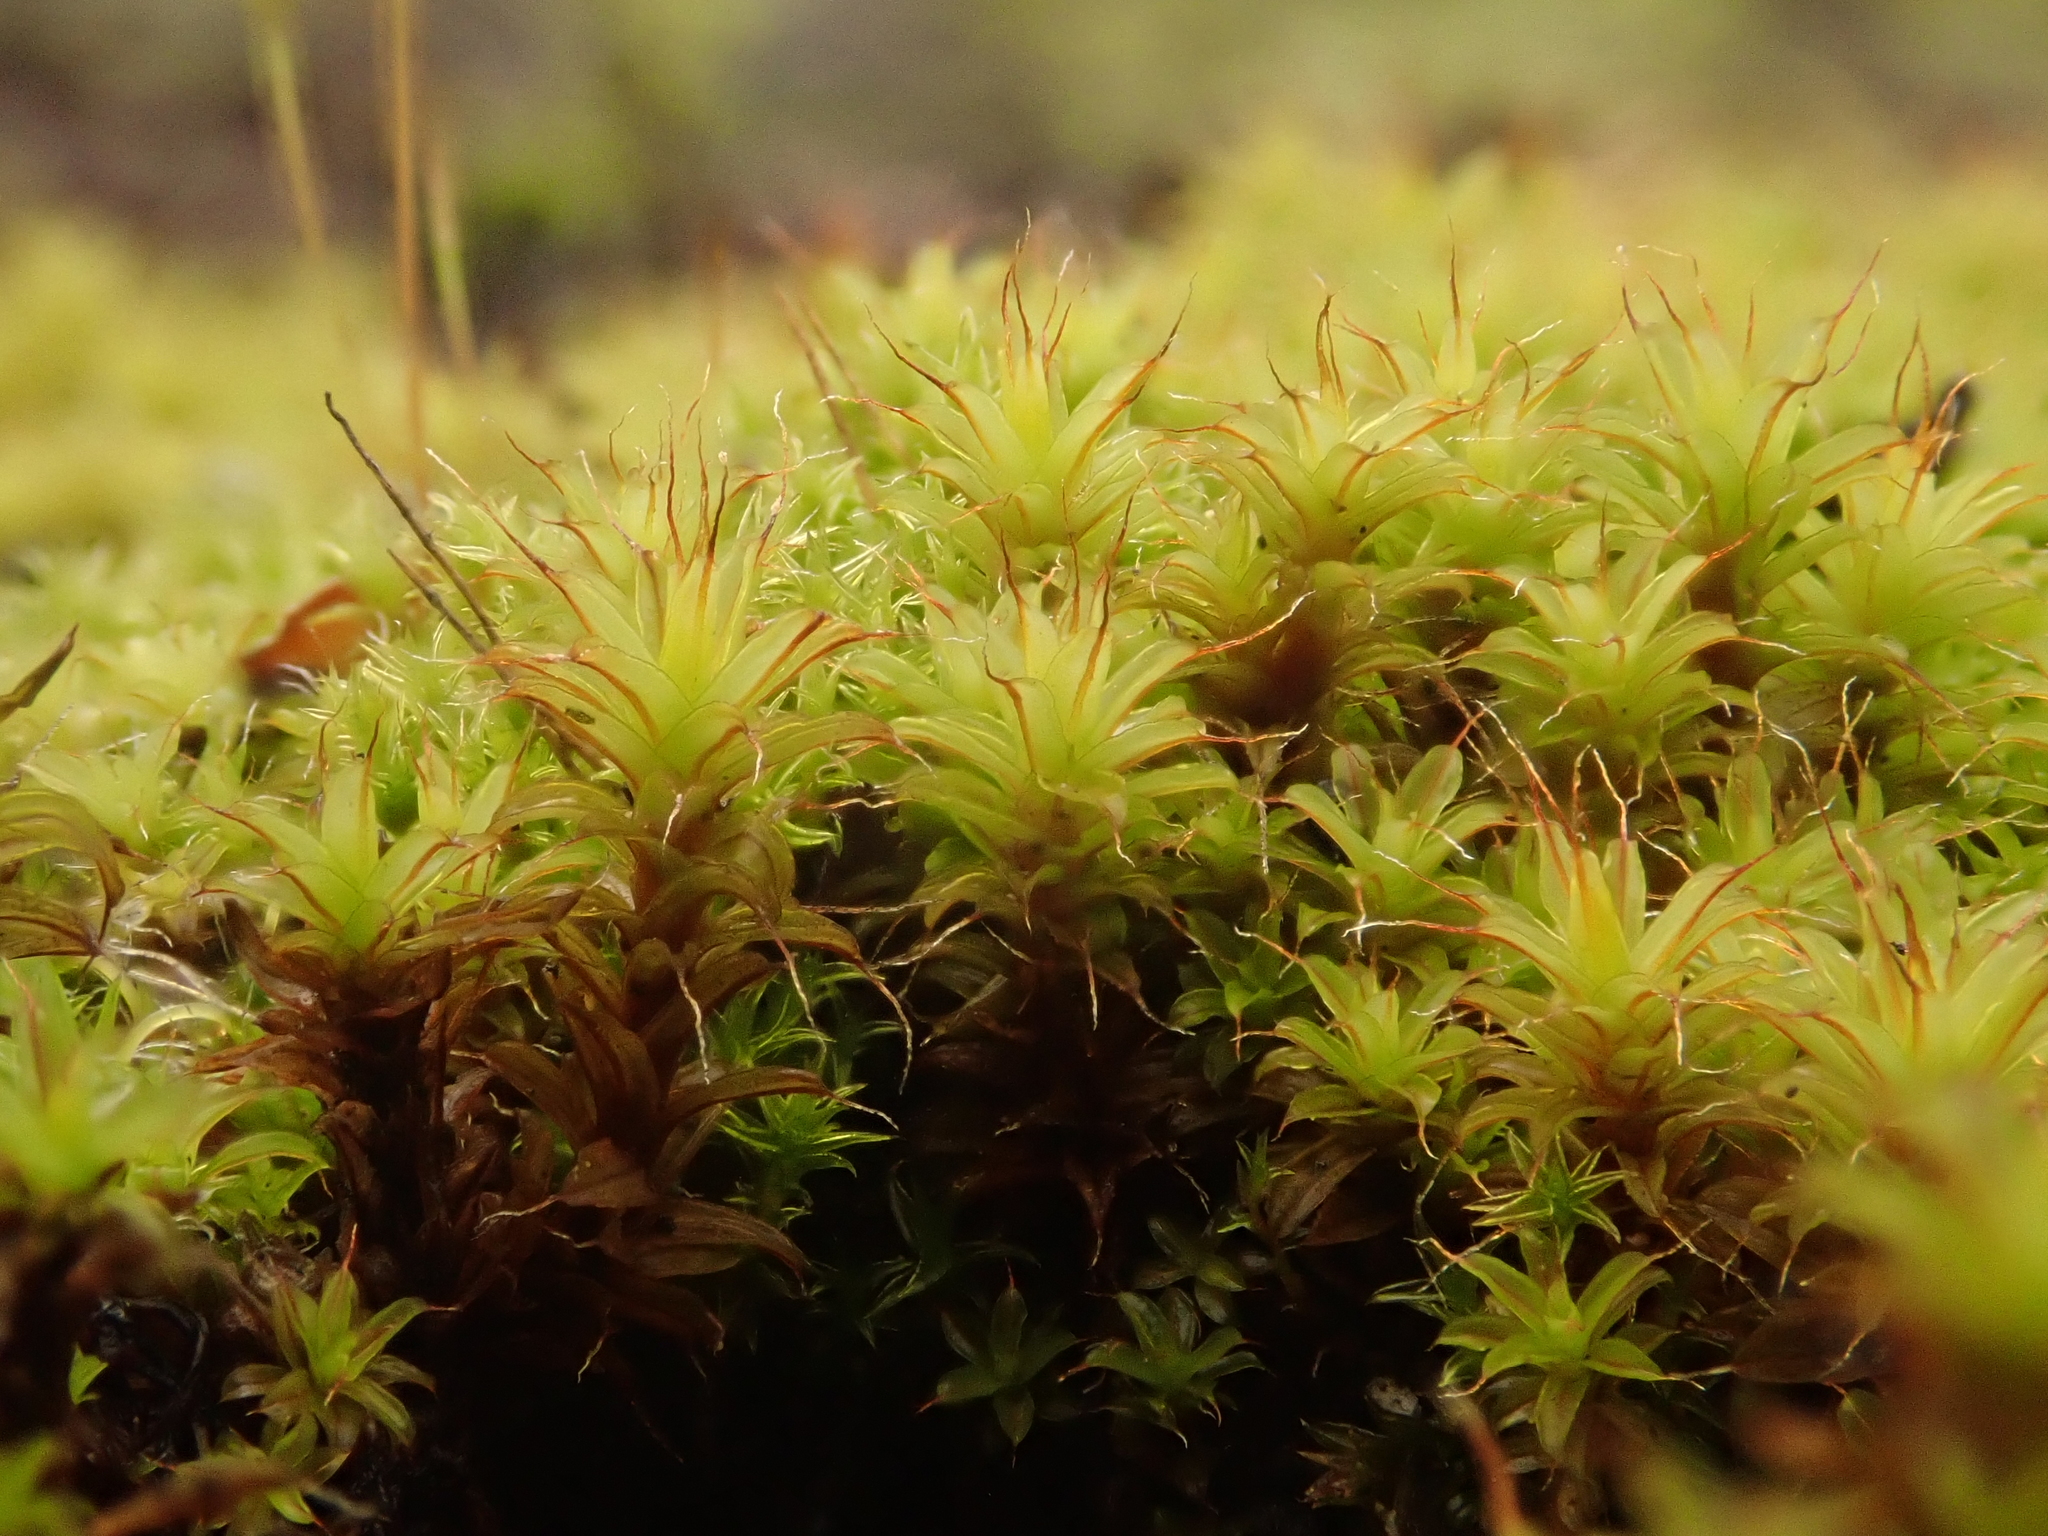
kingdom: Plantae
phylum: Bryophyta
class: Bryopsida
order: Pottiales
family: Pottiaceae
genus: Syntrichia
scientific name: Syntrichia ruralis
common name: Sidewalk screw moss
